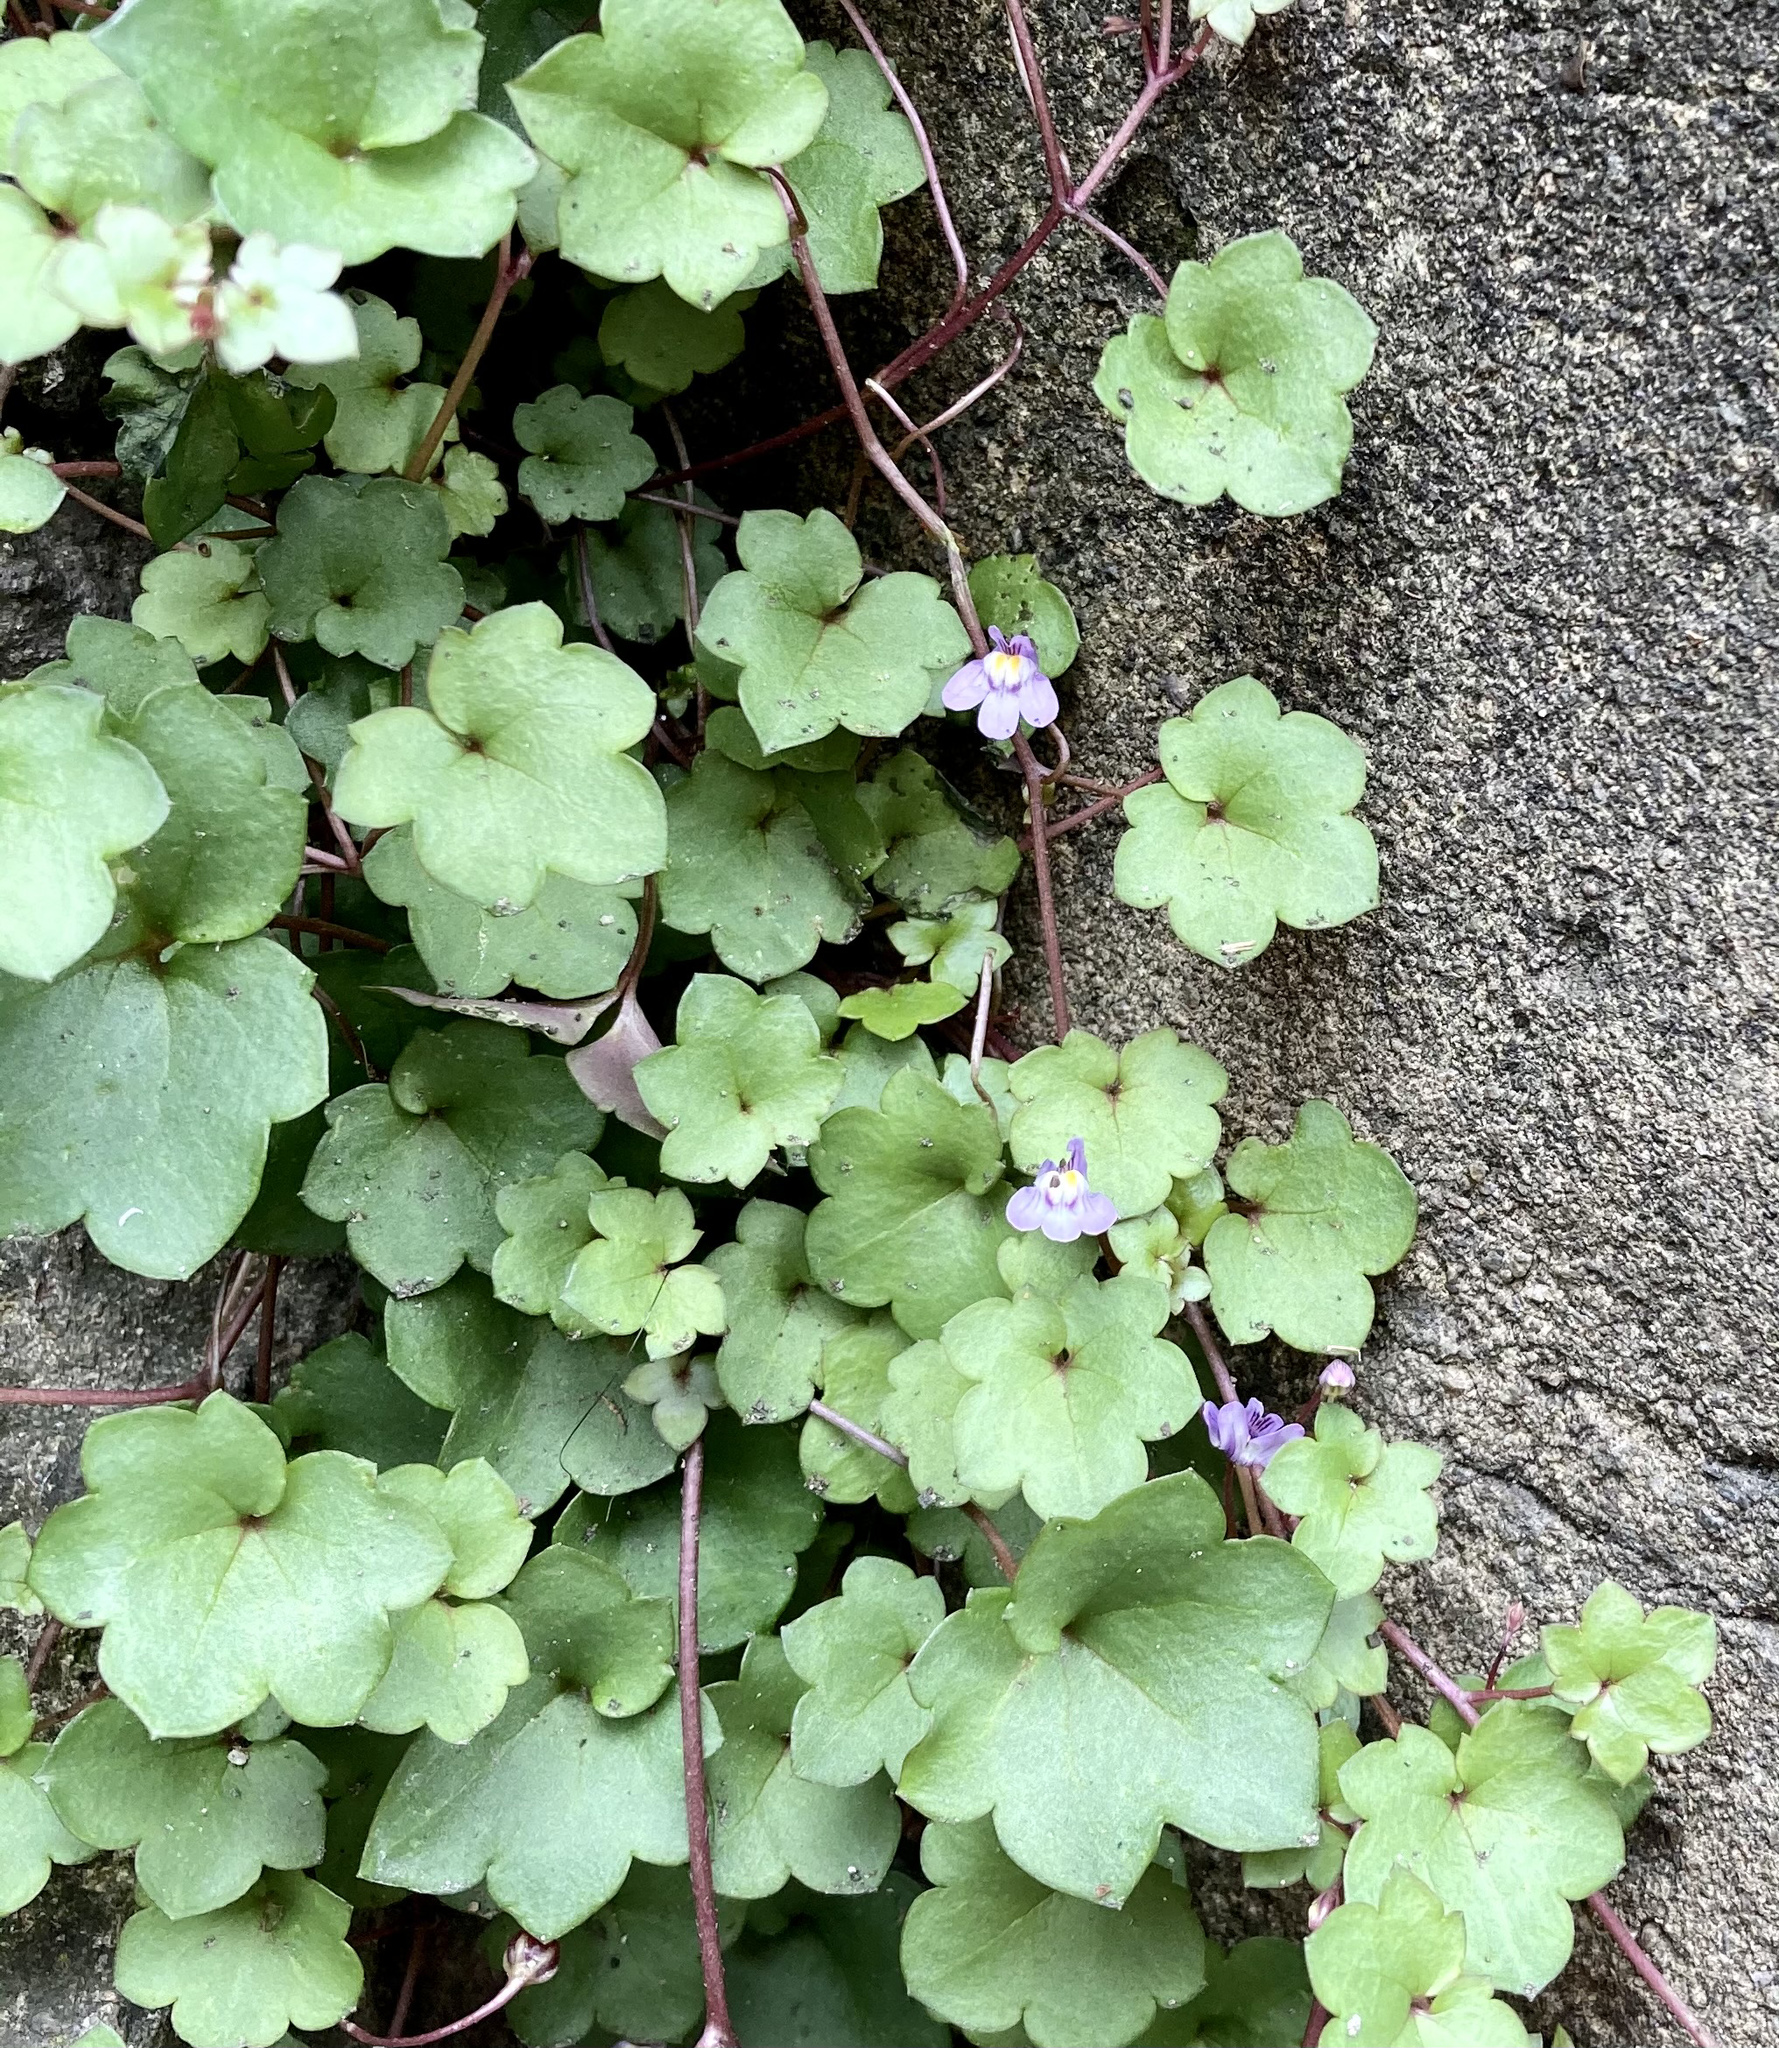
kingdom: Plantae
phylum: Tracheophyta
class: Magnoliopsida
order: Lamiales
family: Plantaginaceae
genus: Cymbalaria
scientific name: Cymbalaria muralis
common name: Ivy-leaved toadflax
